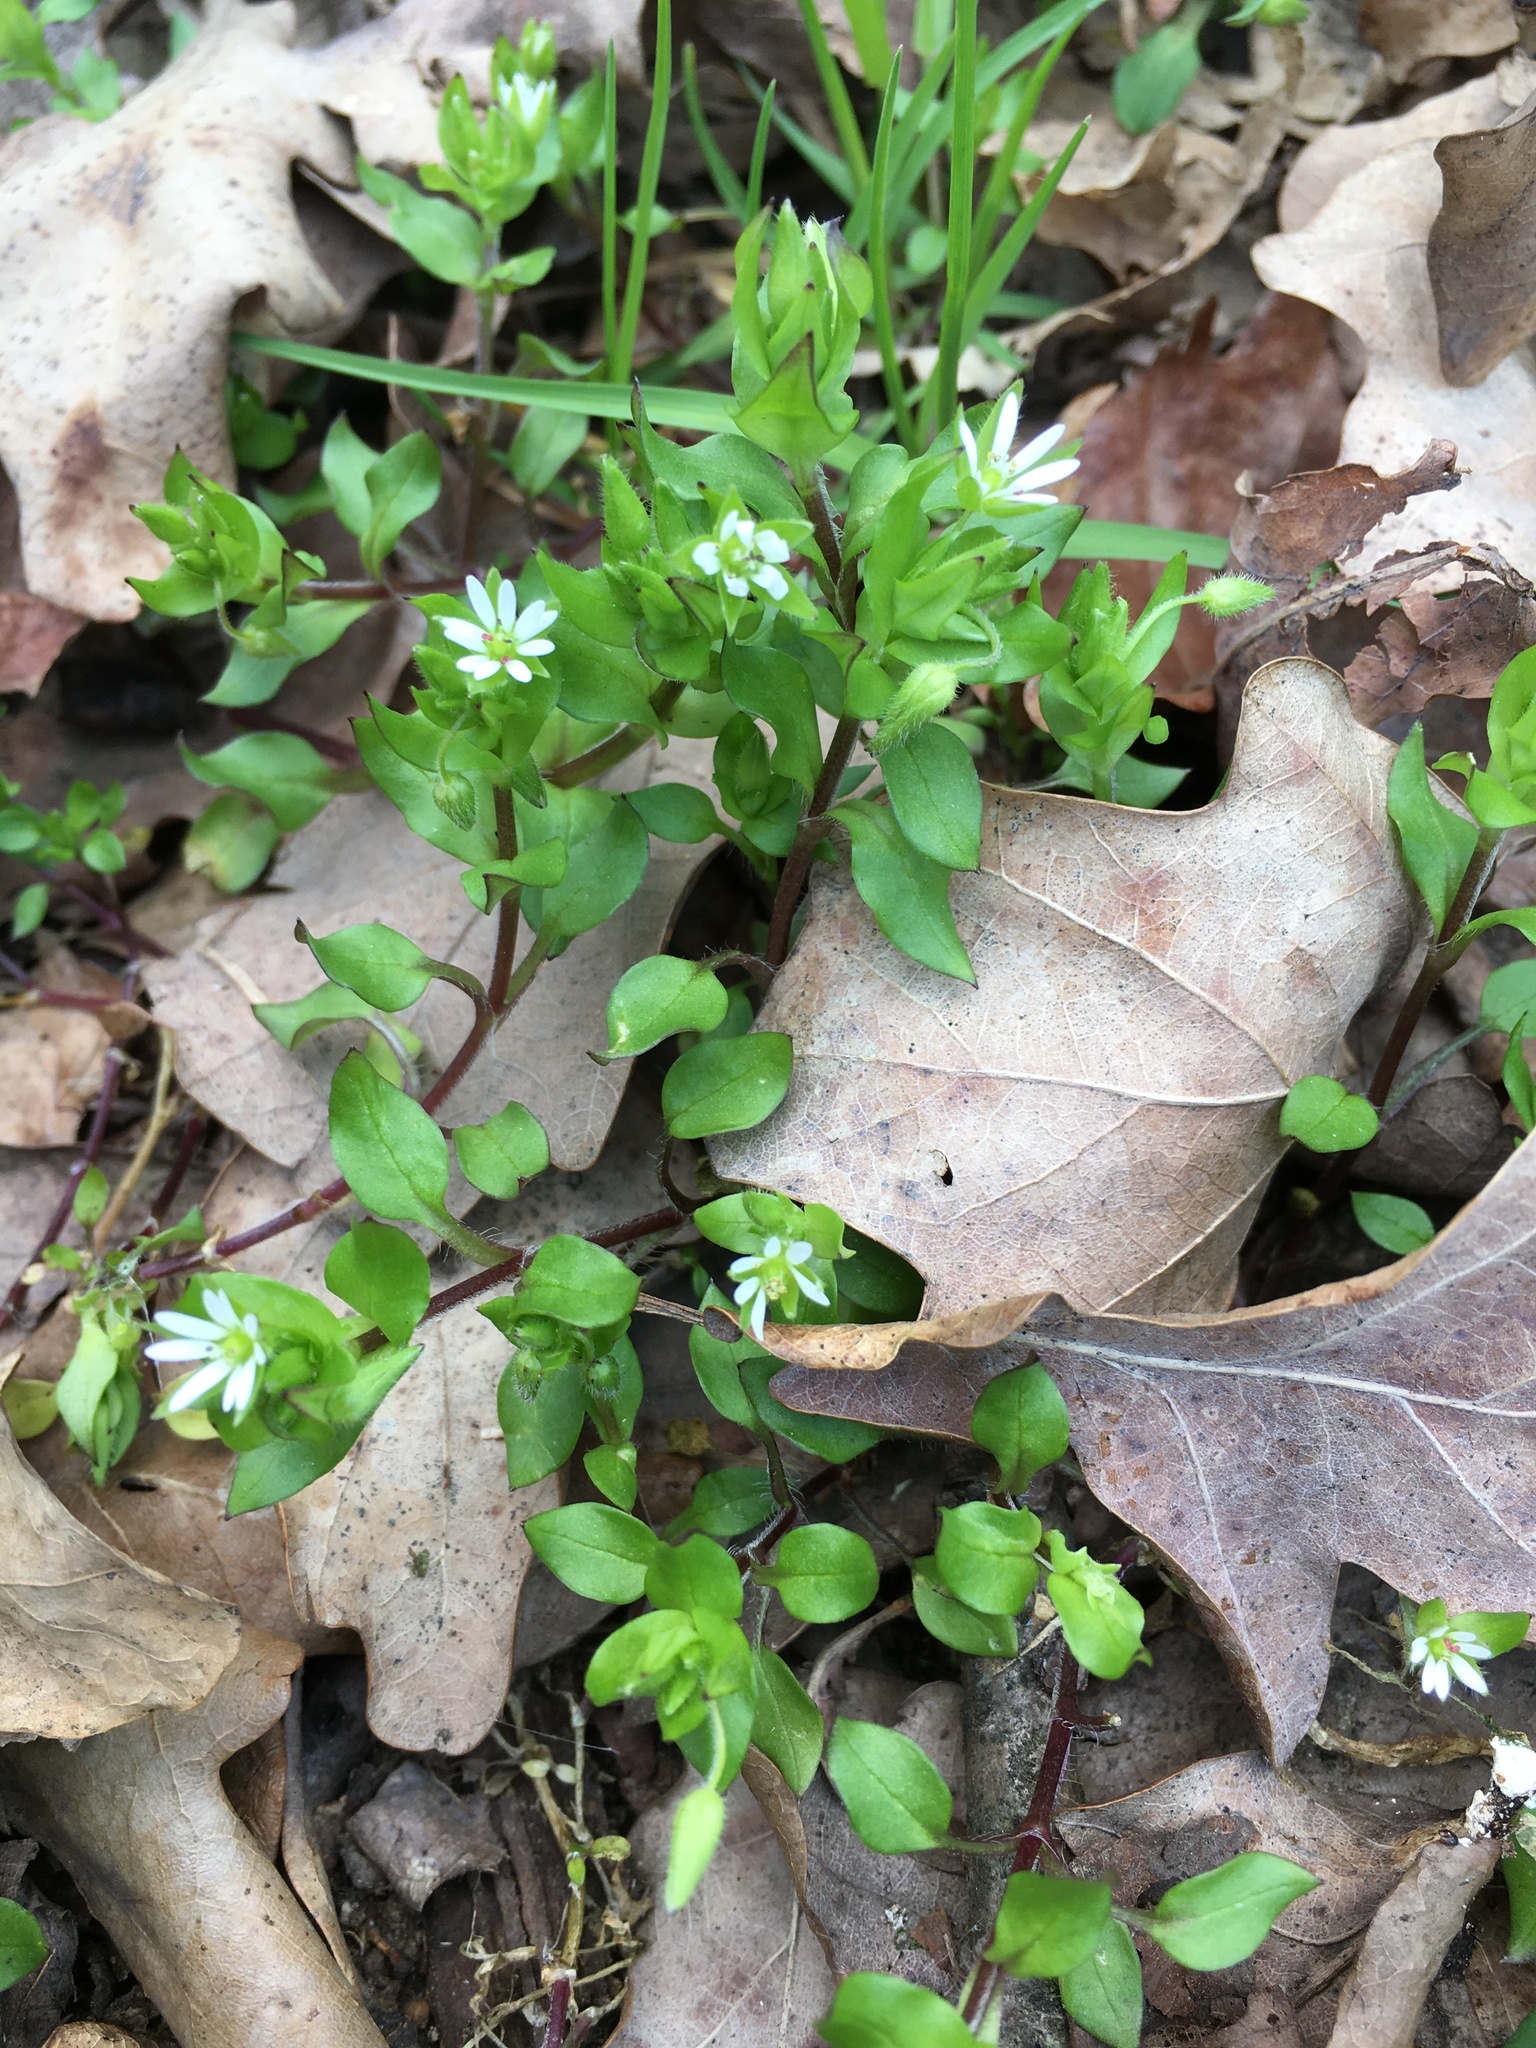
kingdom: Plantae
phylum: Tracheophyta
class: Magnoliopsida
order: Caryophyllales
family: Caryophyllaceae
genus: Stellaria
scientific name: Stellaria media
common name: Common chickweed
